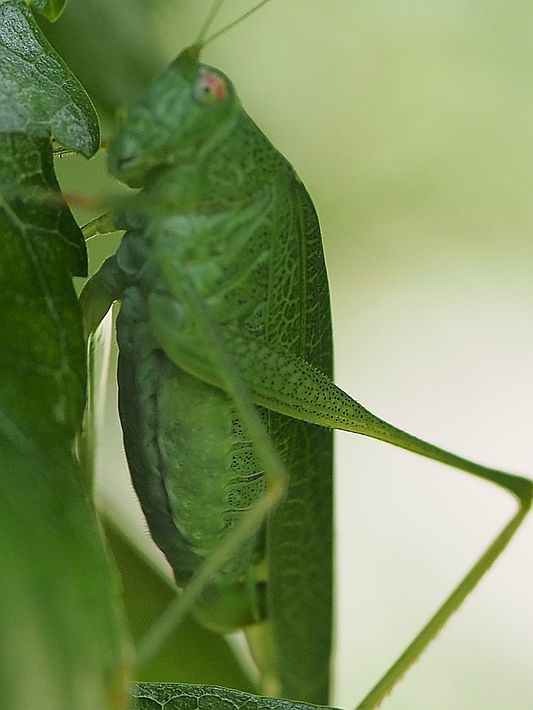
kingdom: Animalia
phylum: Arthropoda
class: Insecta
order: Orthoptera
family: Tettigoniidae
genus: Phaneroptera
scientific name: Phaneroptera nana
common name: Southern sickle bush-cricket
